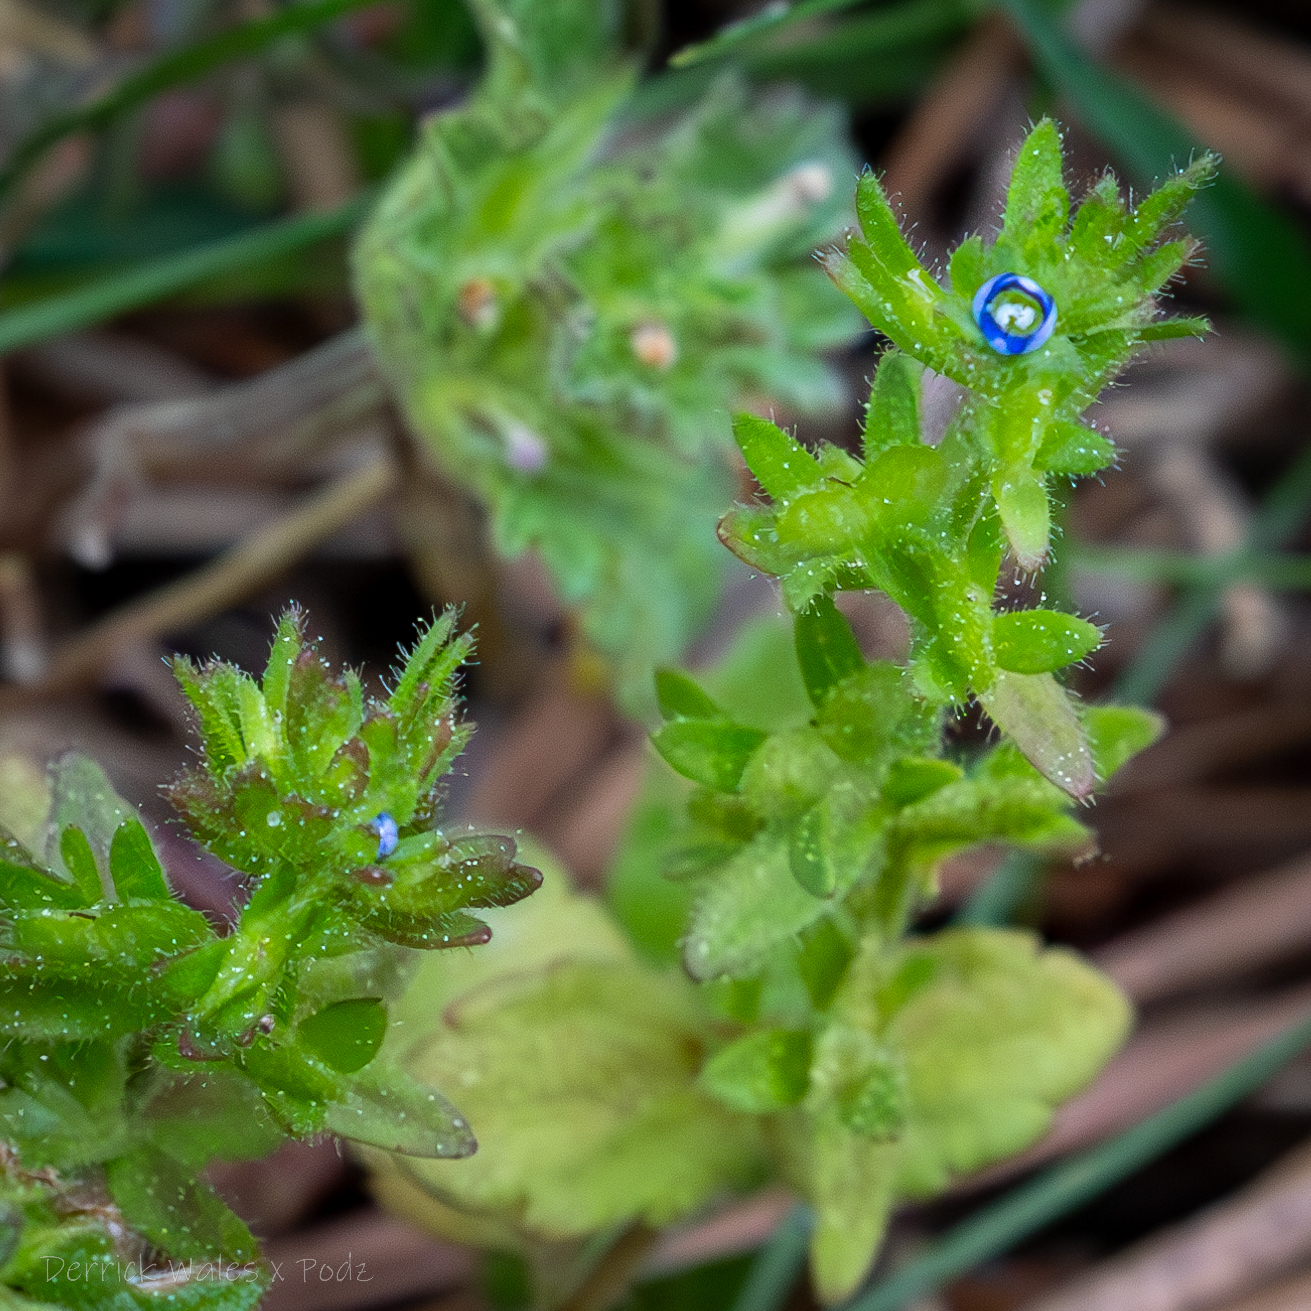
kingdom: Plantae
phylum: Tracheophyta
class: Magnoliopsida
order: Lamiales
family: Plantaginaceae
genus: Veronica
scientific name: Veronica arvensis
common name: Corn speedwell
